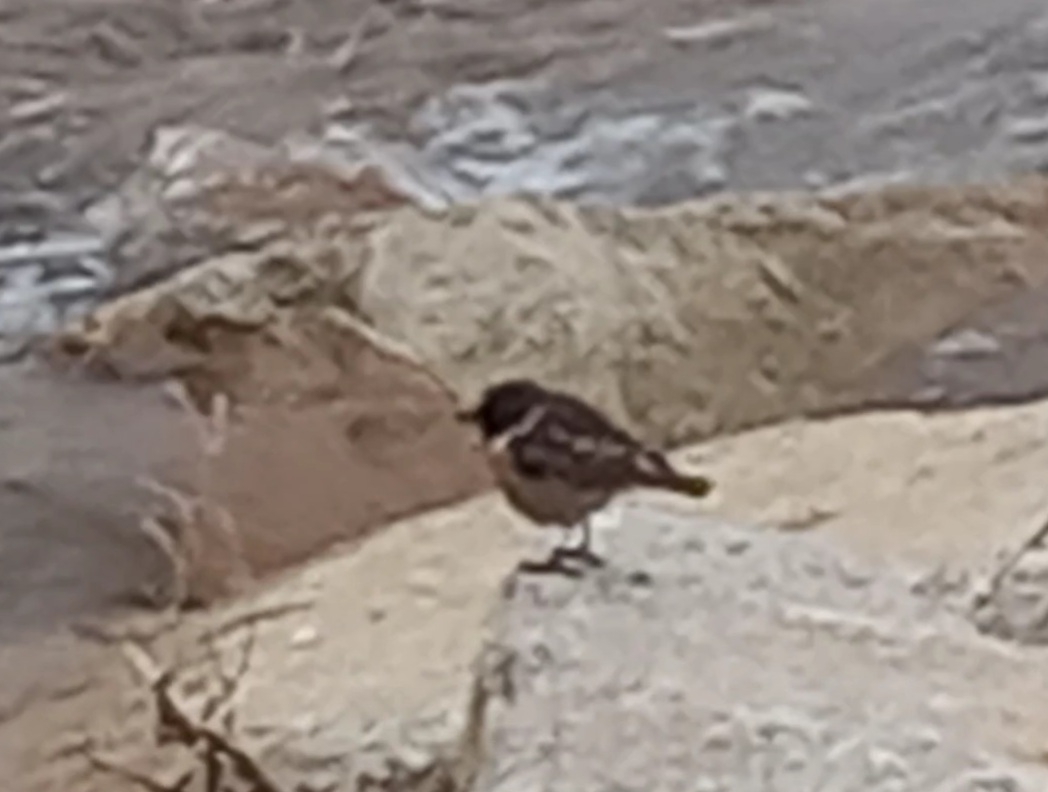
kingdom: Animalia
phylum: Chordata
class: Aves
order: Passeriformes
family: Muscicapidae
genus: Saxicola
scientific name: Saxicola rubicola
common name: European stonechat
